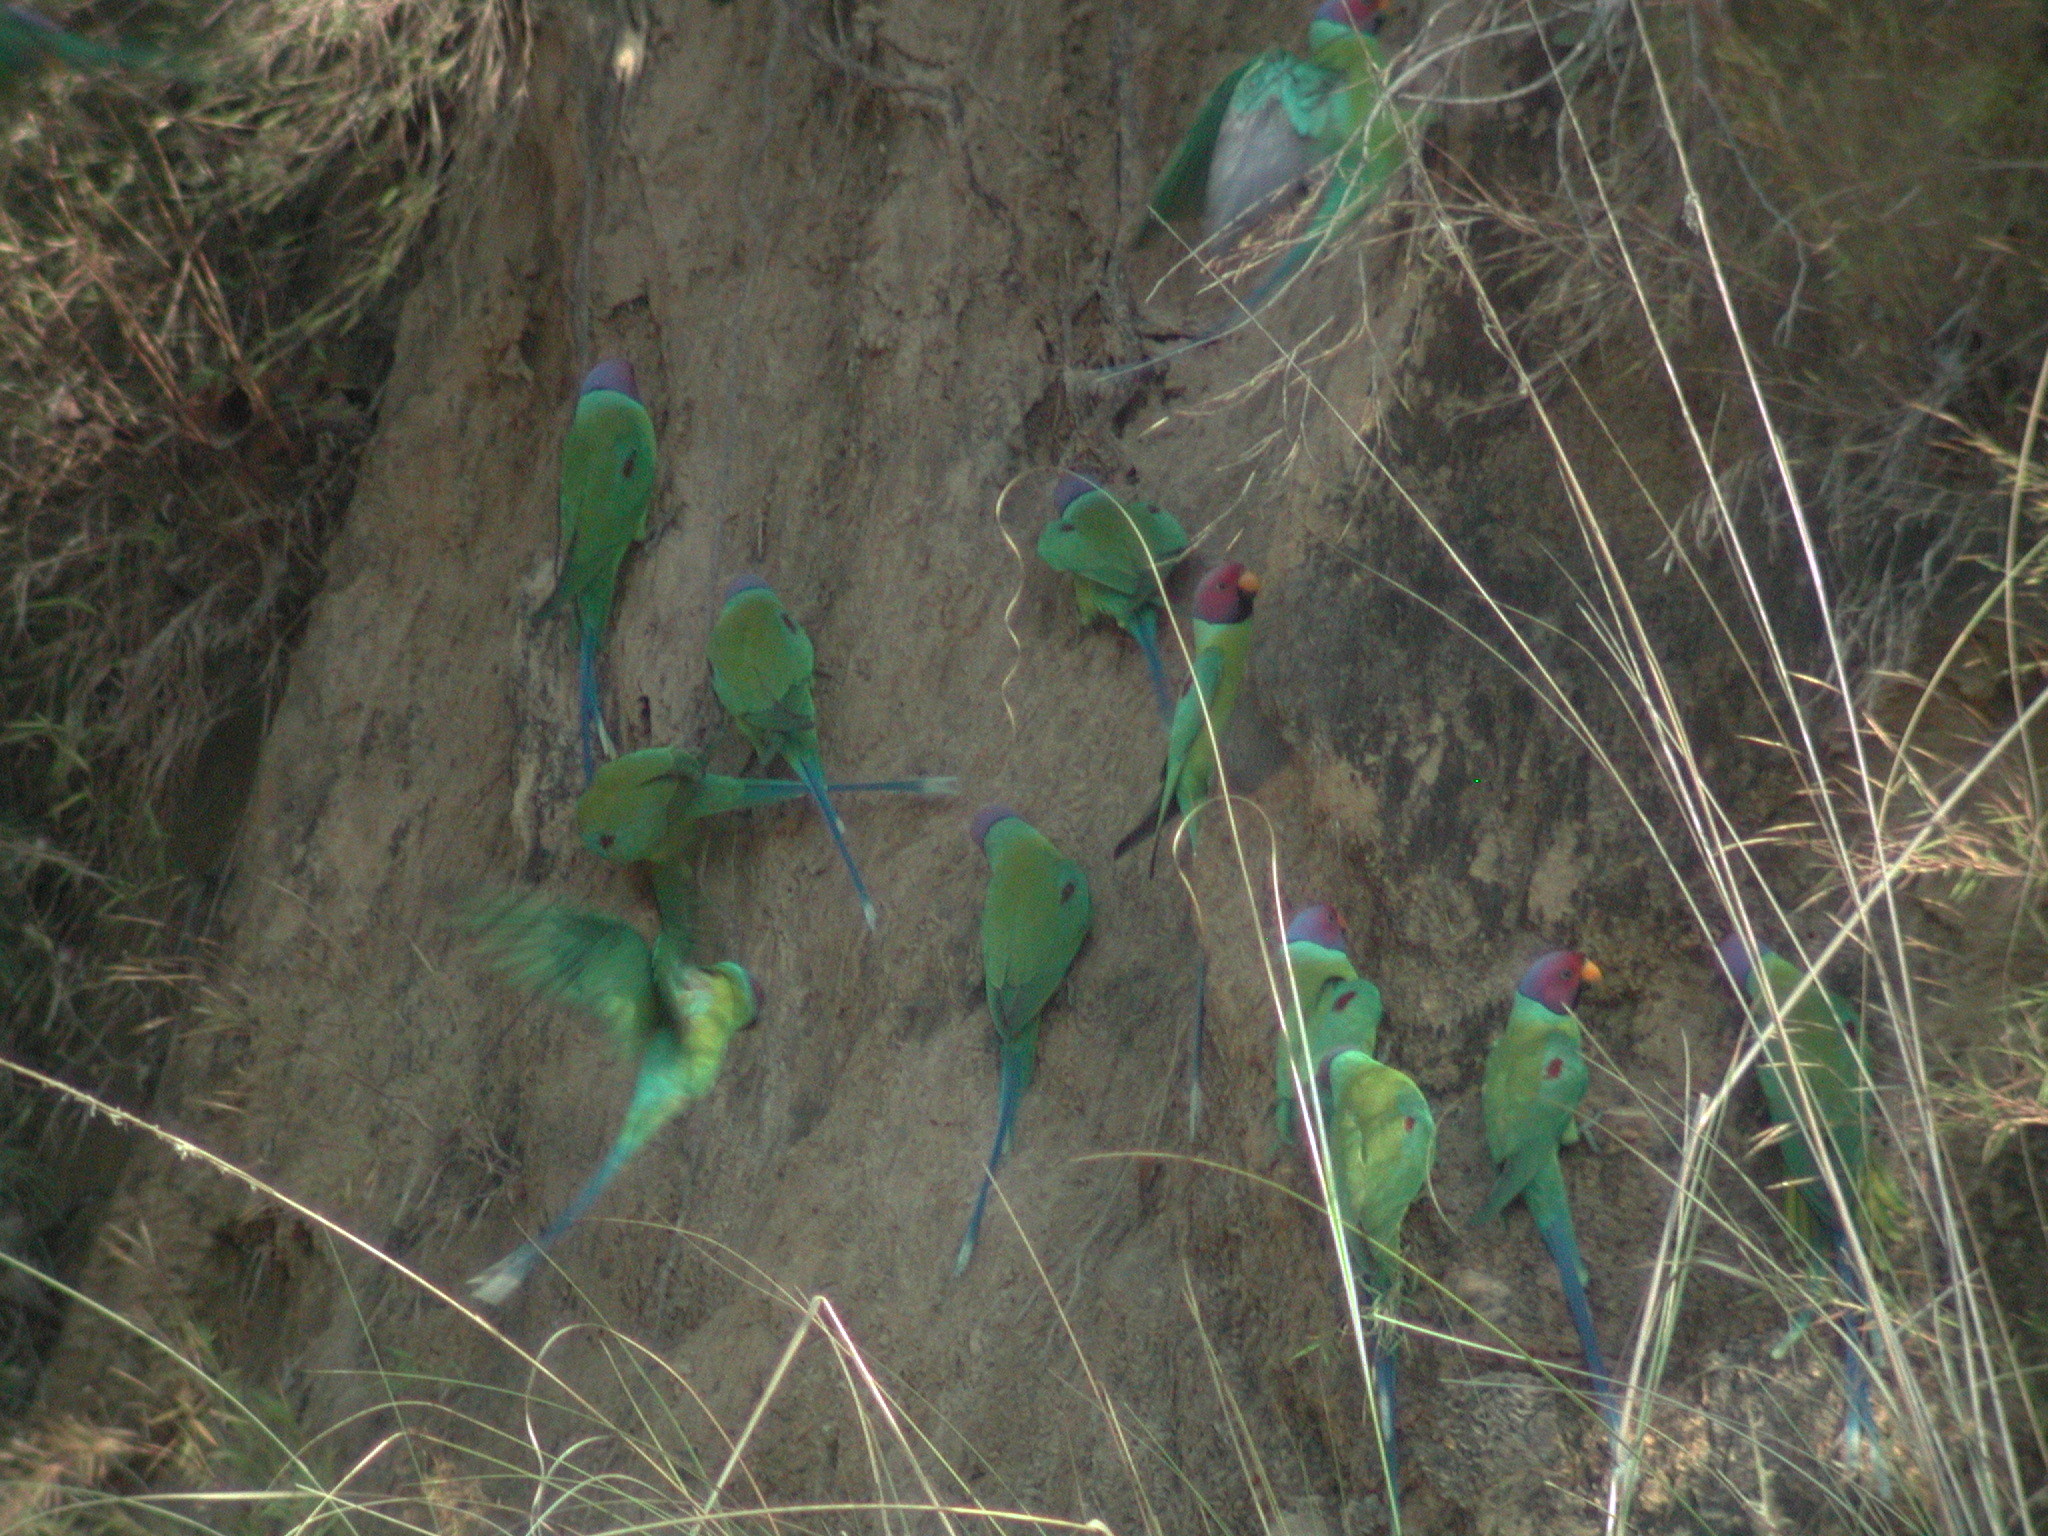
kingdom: Animalia
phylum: Chordata
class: Aves
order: Psittaciformes
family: Psittacidae
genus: Psittacula
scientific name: Psittacula cyanocephala
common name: Plum-headed parakeet
